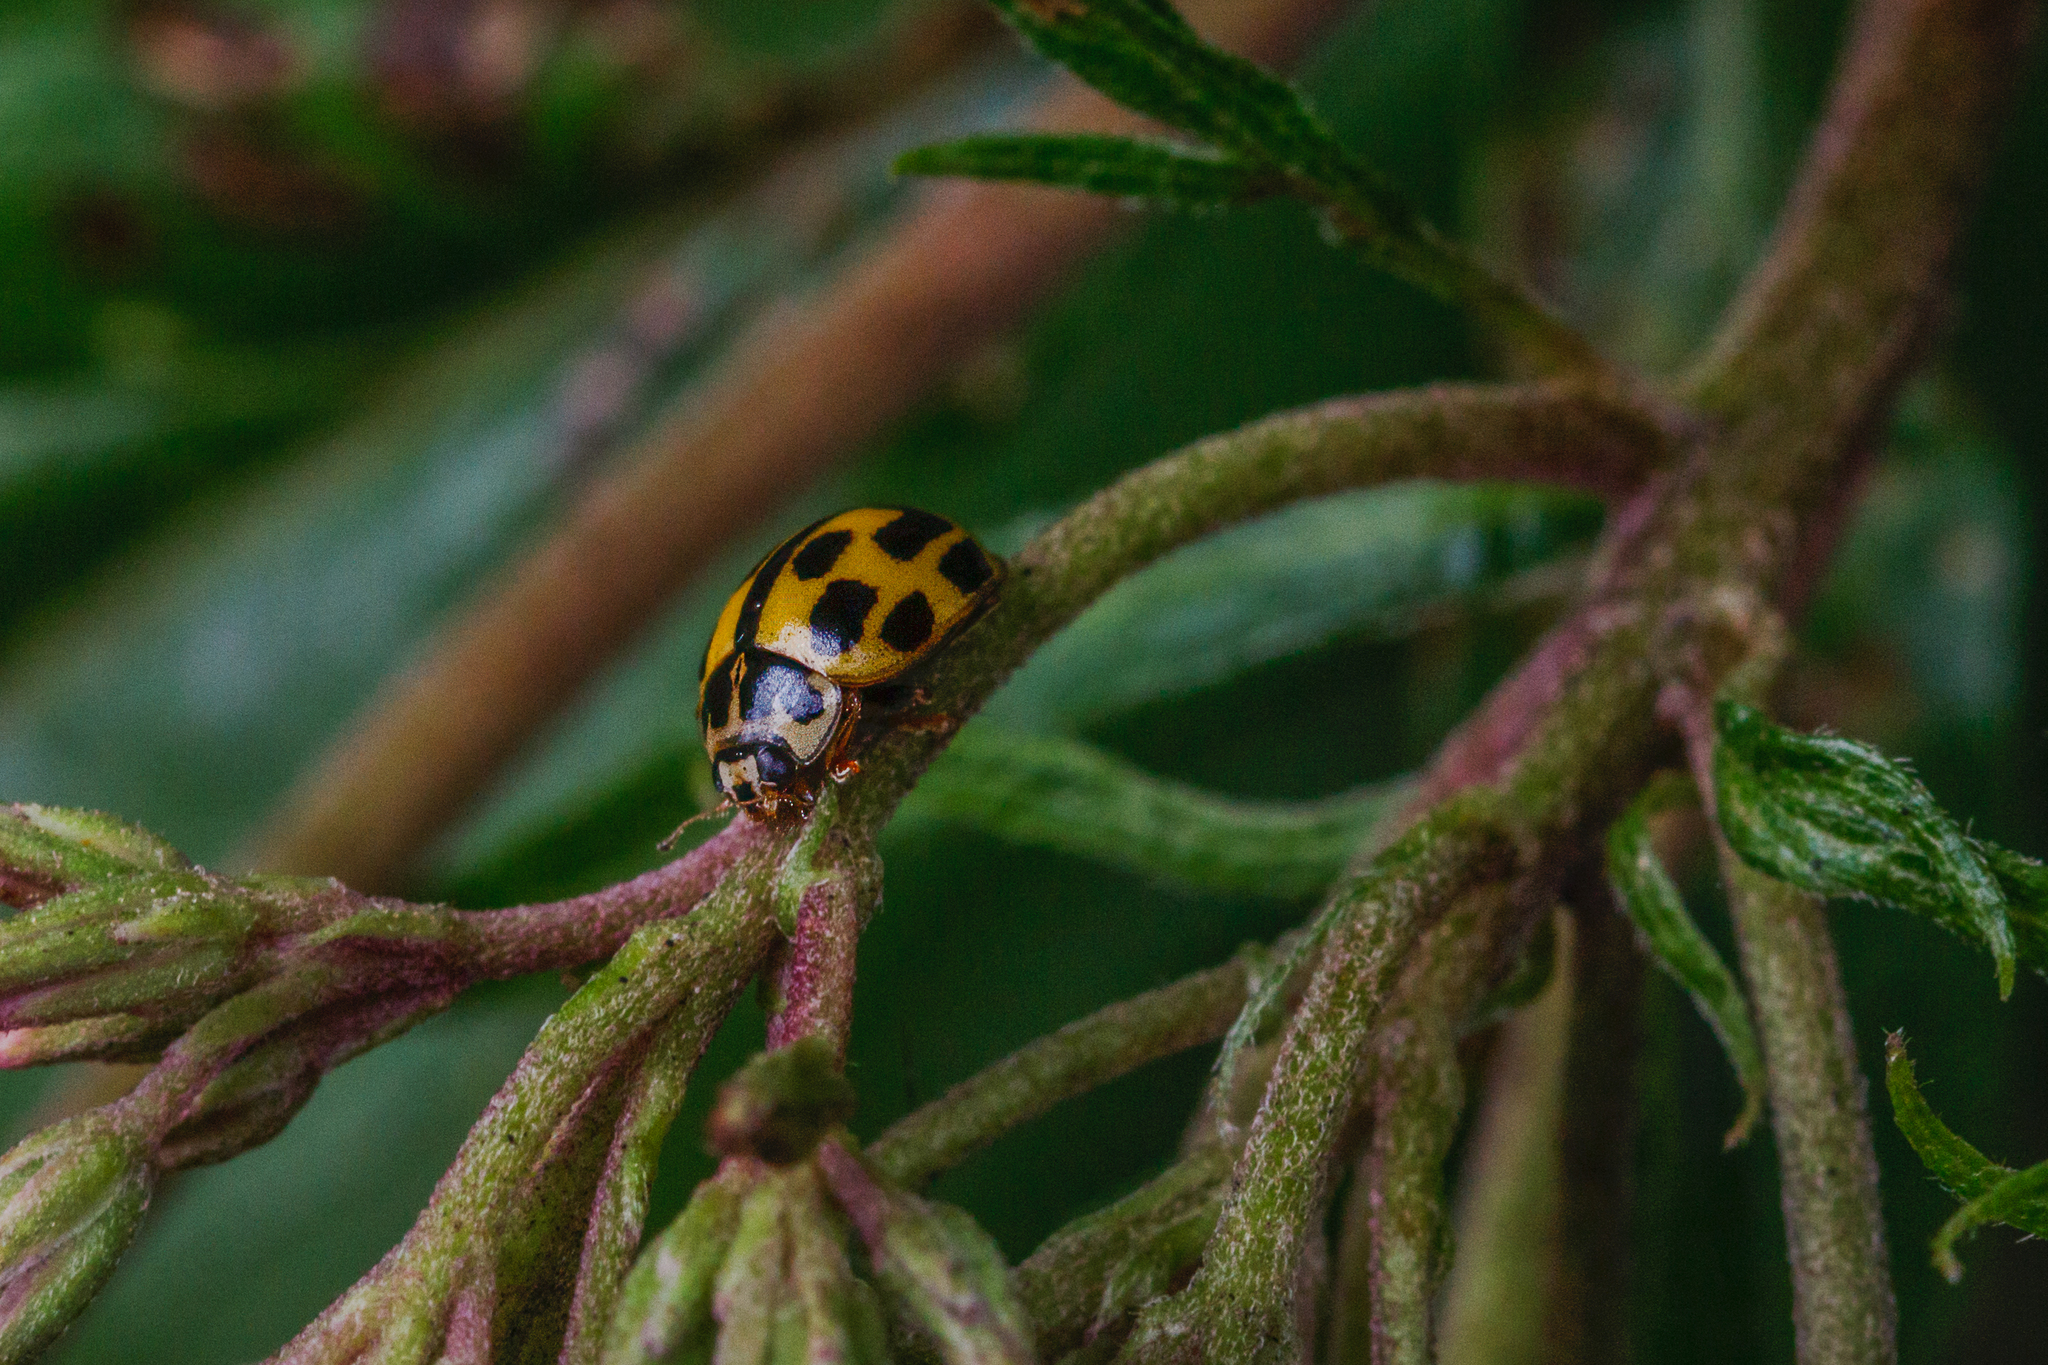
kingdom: Animalia
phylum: Arthropoda
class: Insecta
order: Coleoptera
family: Coccinellidae
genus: Propylaea
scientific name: Propylaea quatuordecimpunctata
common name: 14-spotted ladybird beetle
